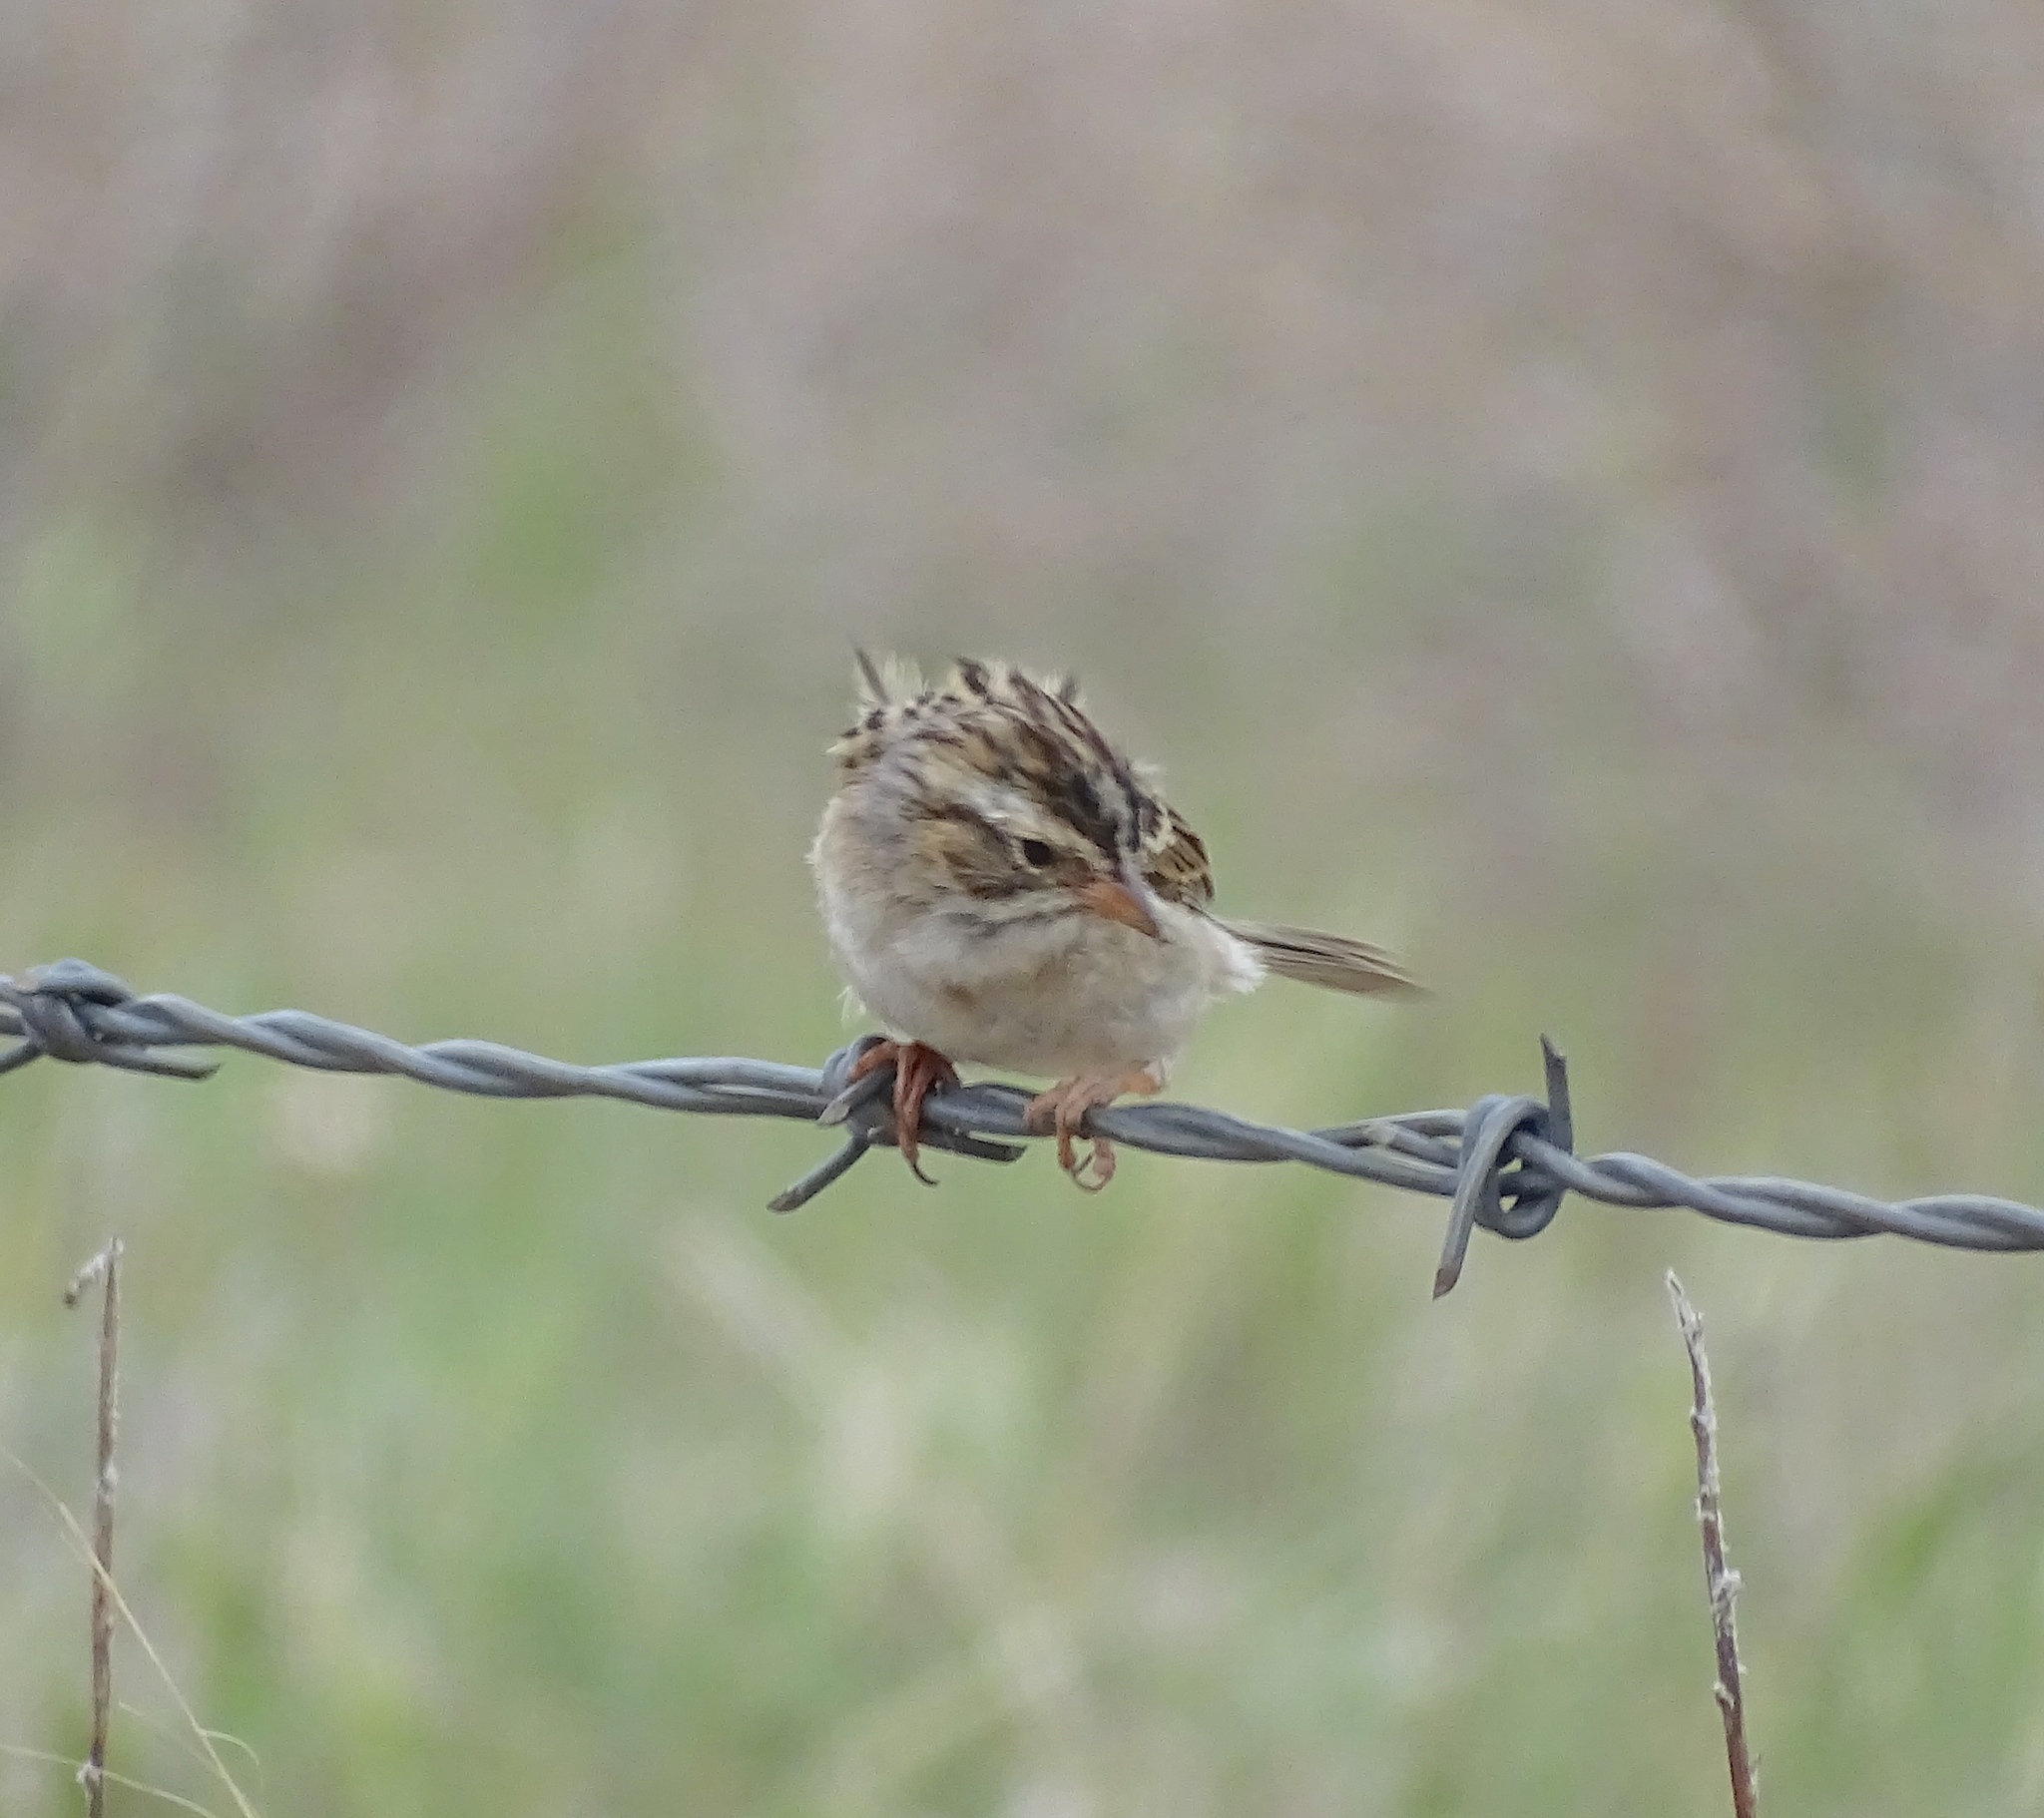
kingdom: Animalia
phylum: Chordata
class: Aves
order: Passeriformes
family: Passerellidae
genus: Spizella
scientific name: Spizella pallida
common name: Clay-colored sparrow
